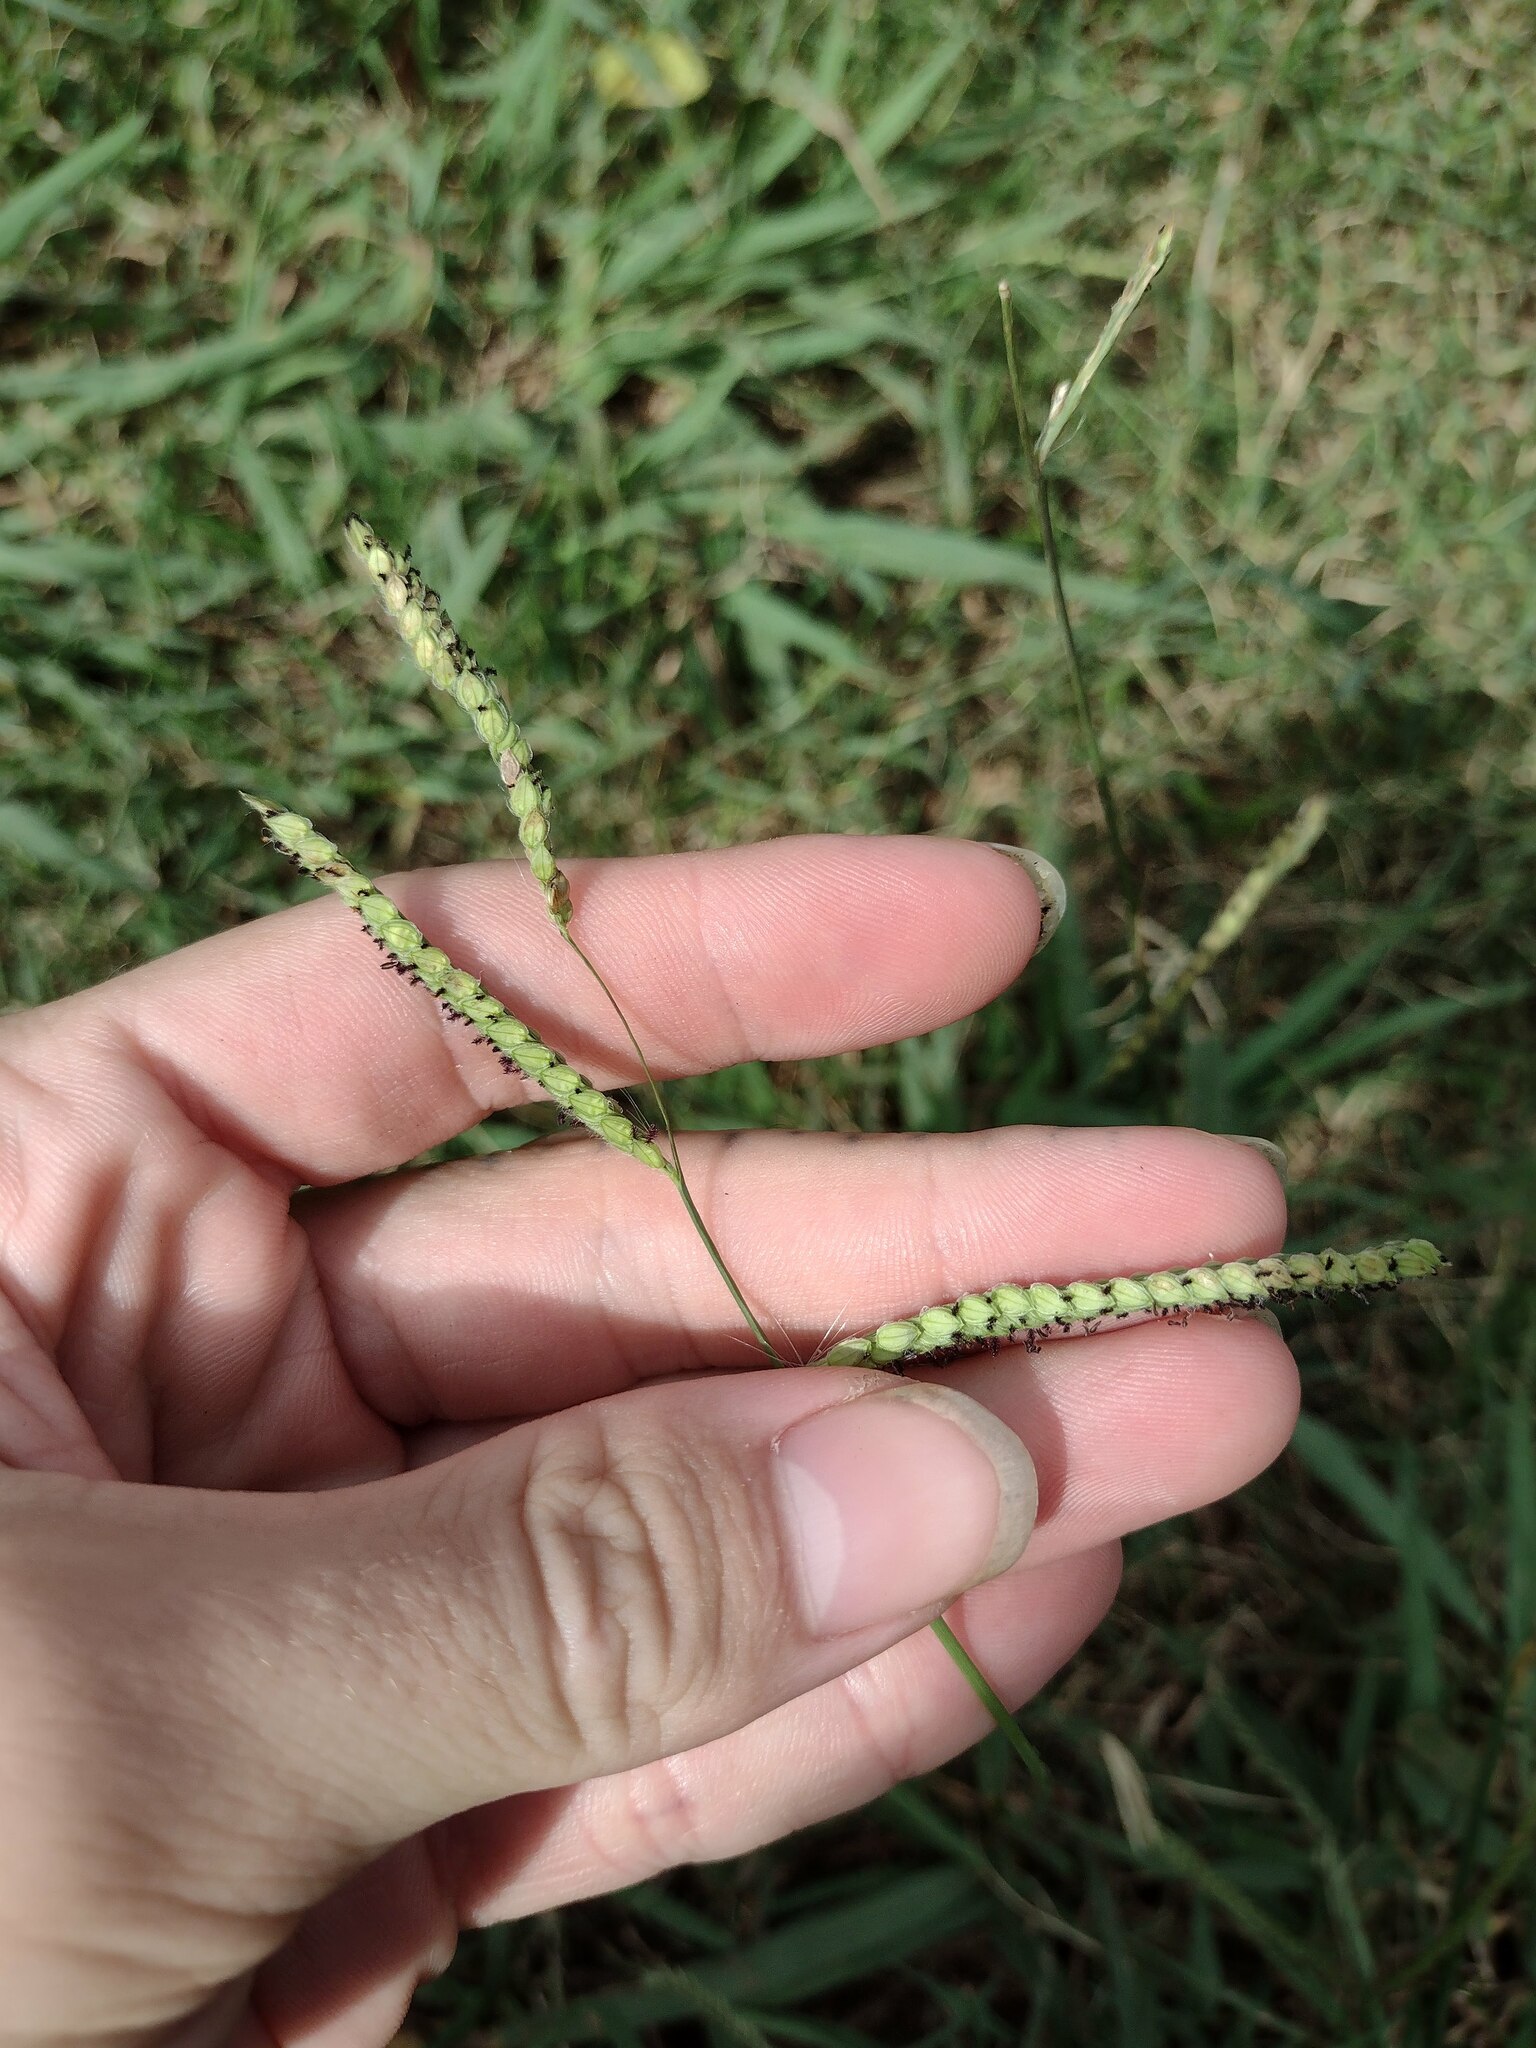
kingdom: Plantae
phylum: Tracheophyta
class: Liliopsida
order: Poales
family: Poaceae
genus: Paspalum
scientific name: Paspalum dilatatum
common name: Dallisgrass
